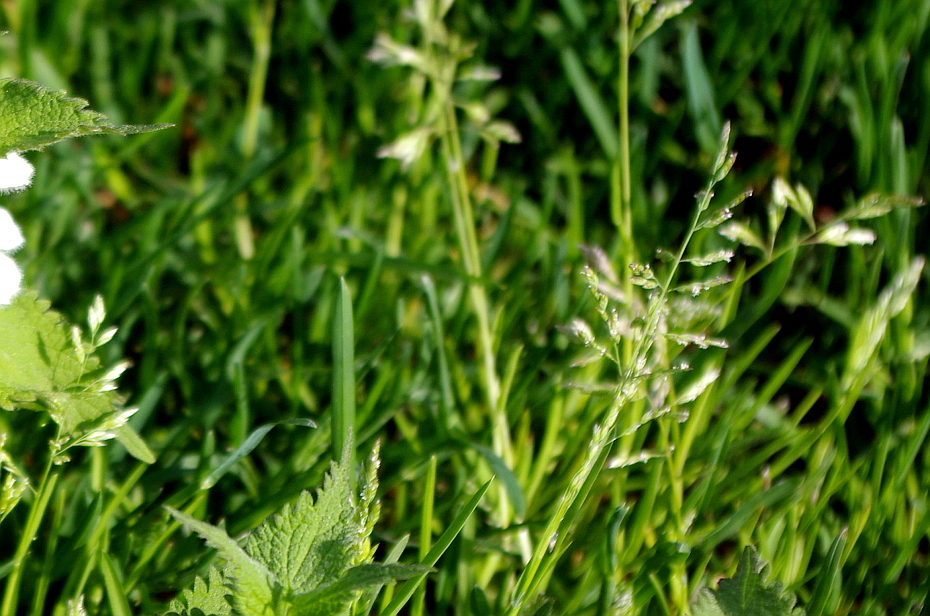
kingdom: Plantae
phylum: Tracheophyta
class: Liliopsida
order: Poales
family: Poaceae
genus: Poa
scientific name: Poa annua
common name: Annual bluegrass
